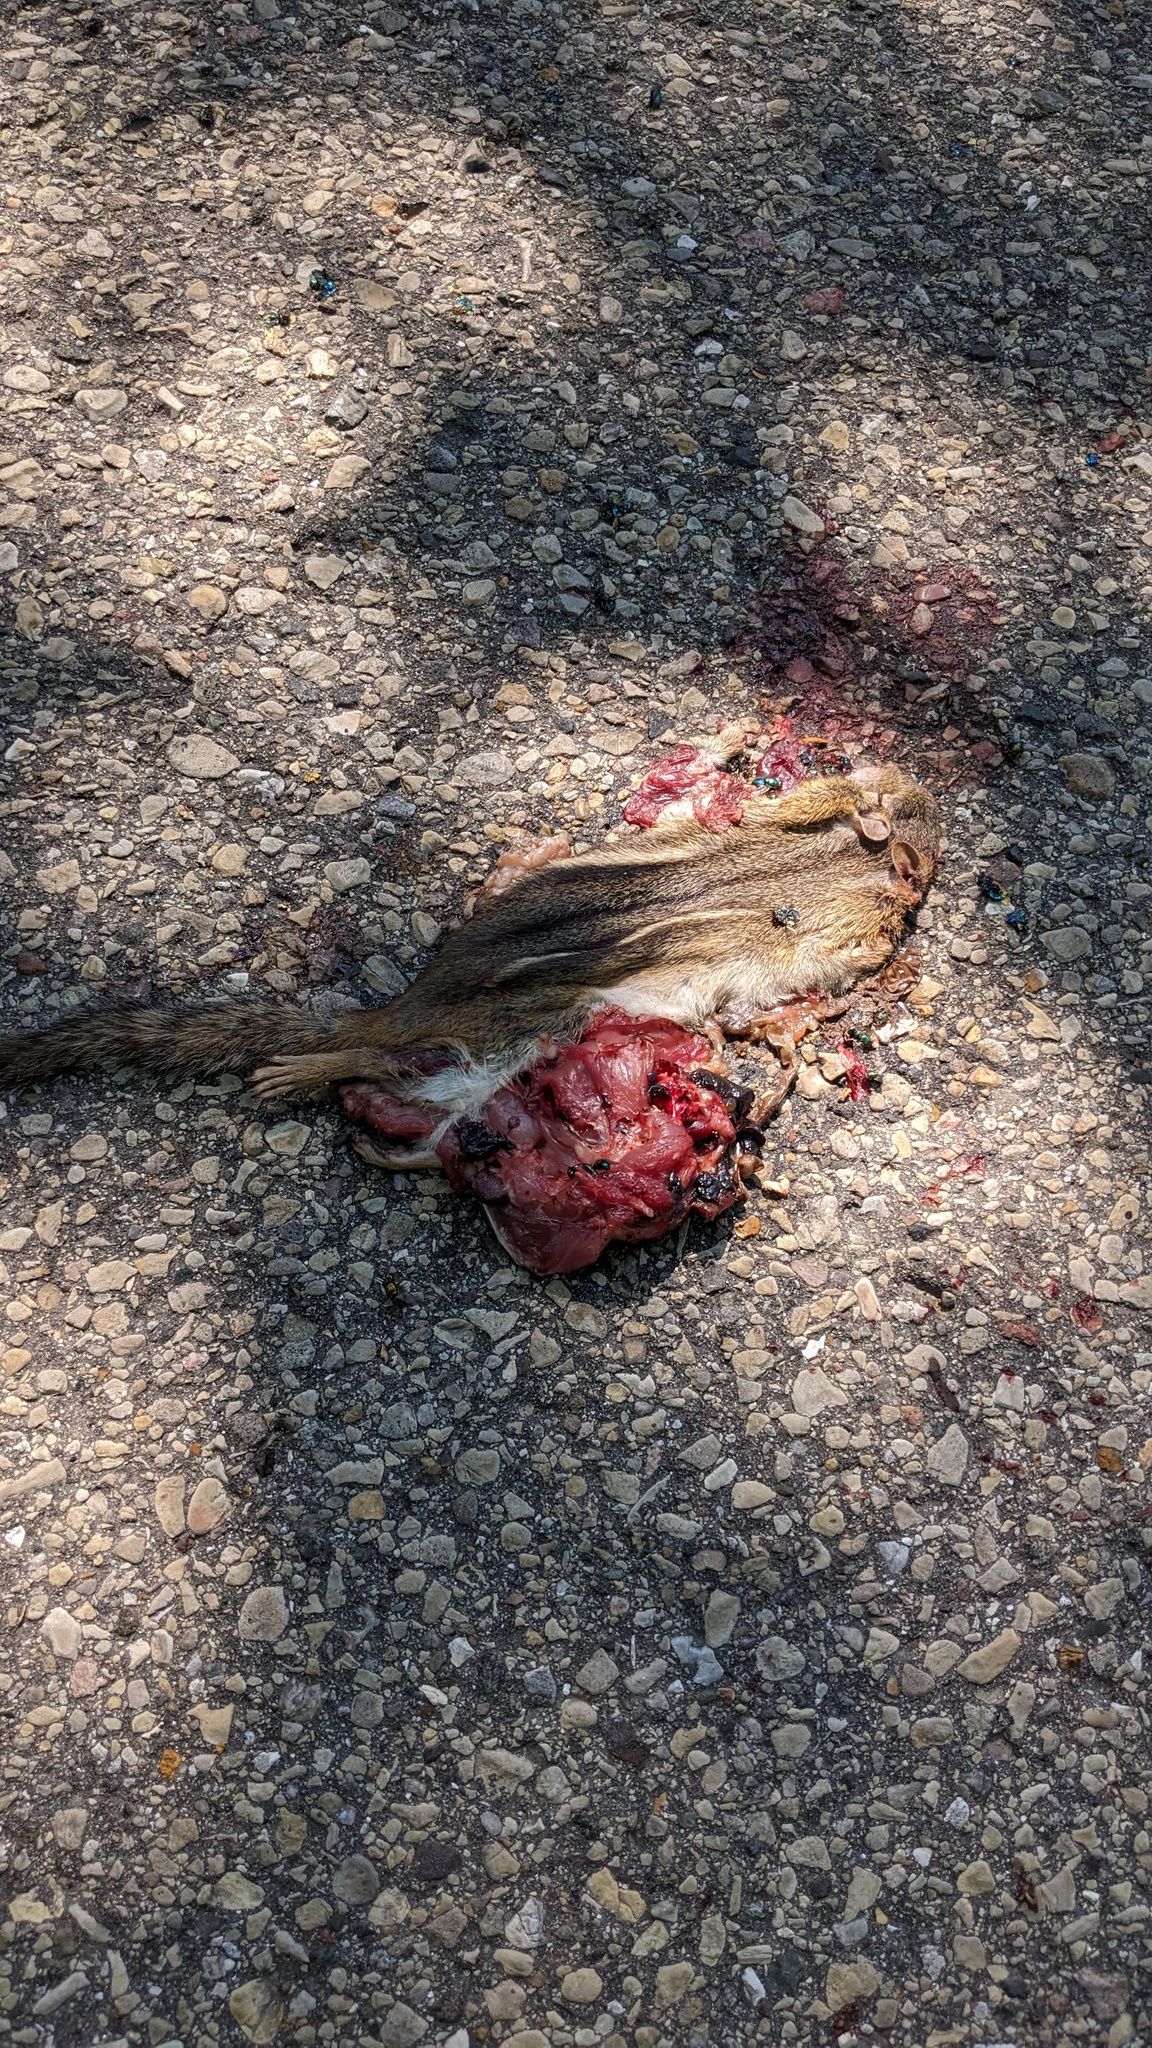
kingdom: Animalia
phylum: Chordata
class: Mammalia
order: Rodentia
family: Sciuridae
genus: Tamias
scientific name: Tamias striatus
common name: Eastern chipmunk
